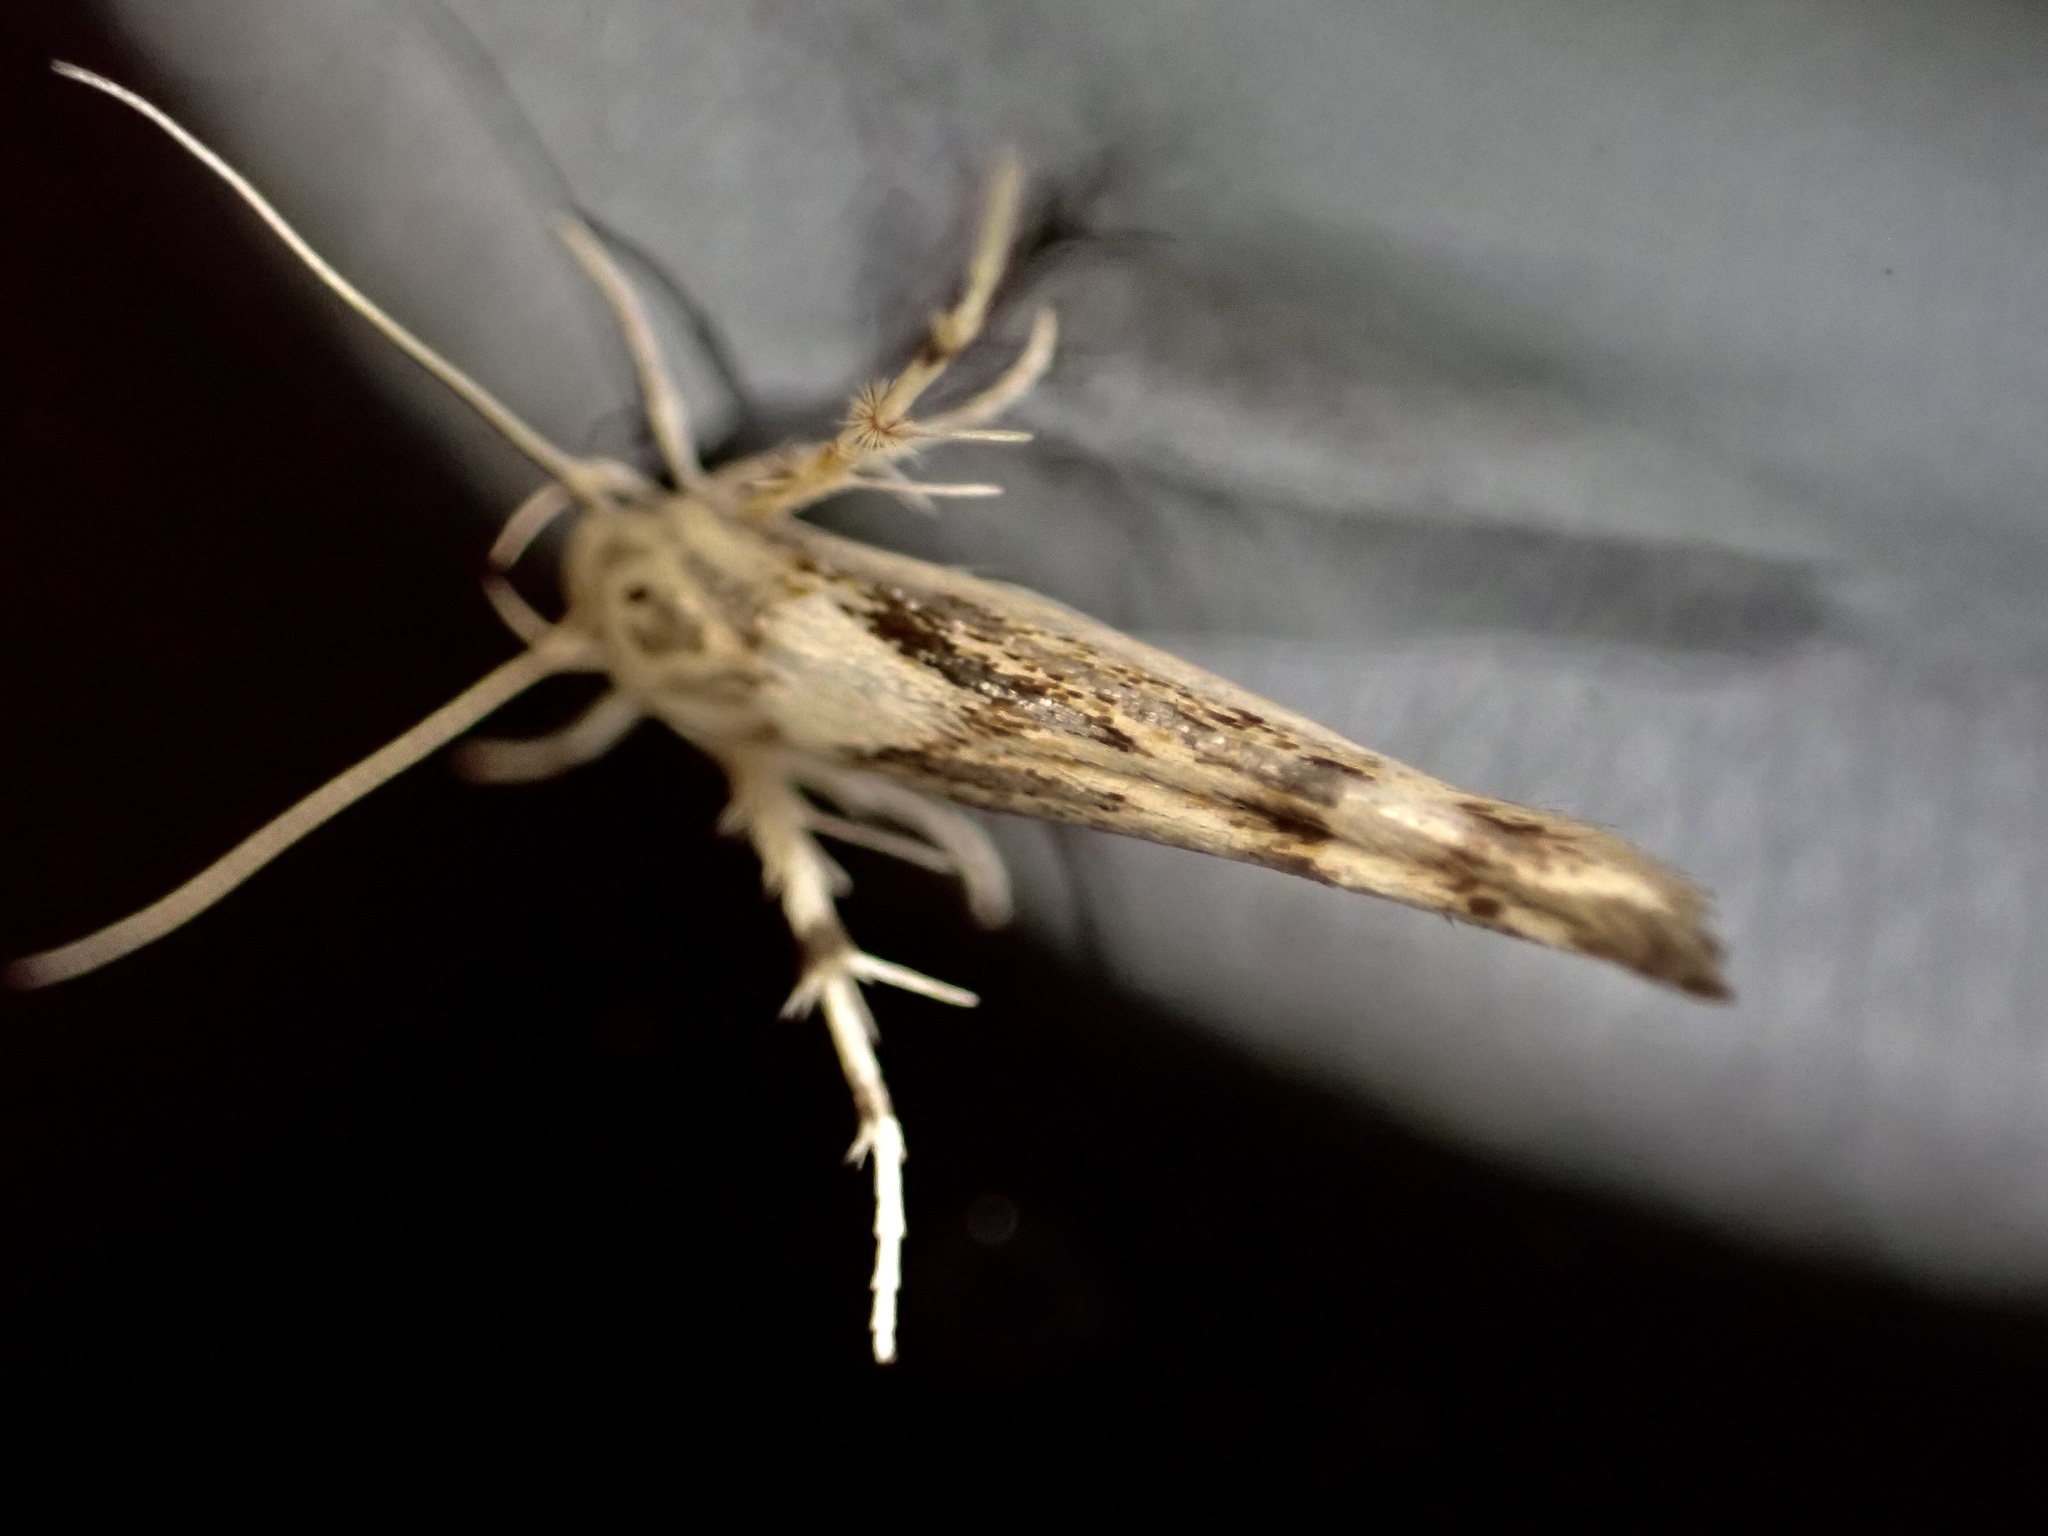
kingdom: Animalia
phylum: Arthropoda
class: Insecta
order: Lepidoptera
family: Stathmopodidae
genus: Stathmopoda
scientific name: Stathmopoda plumbiflua
